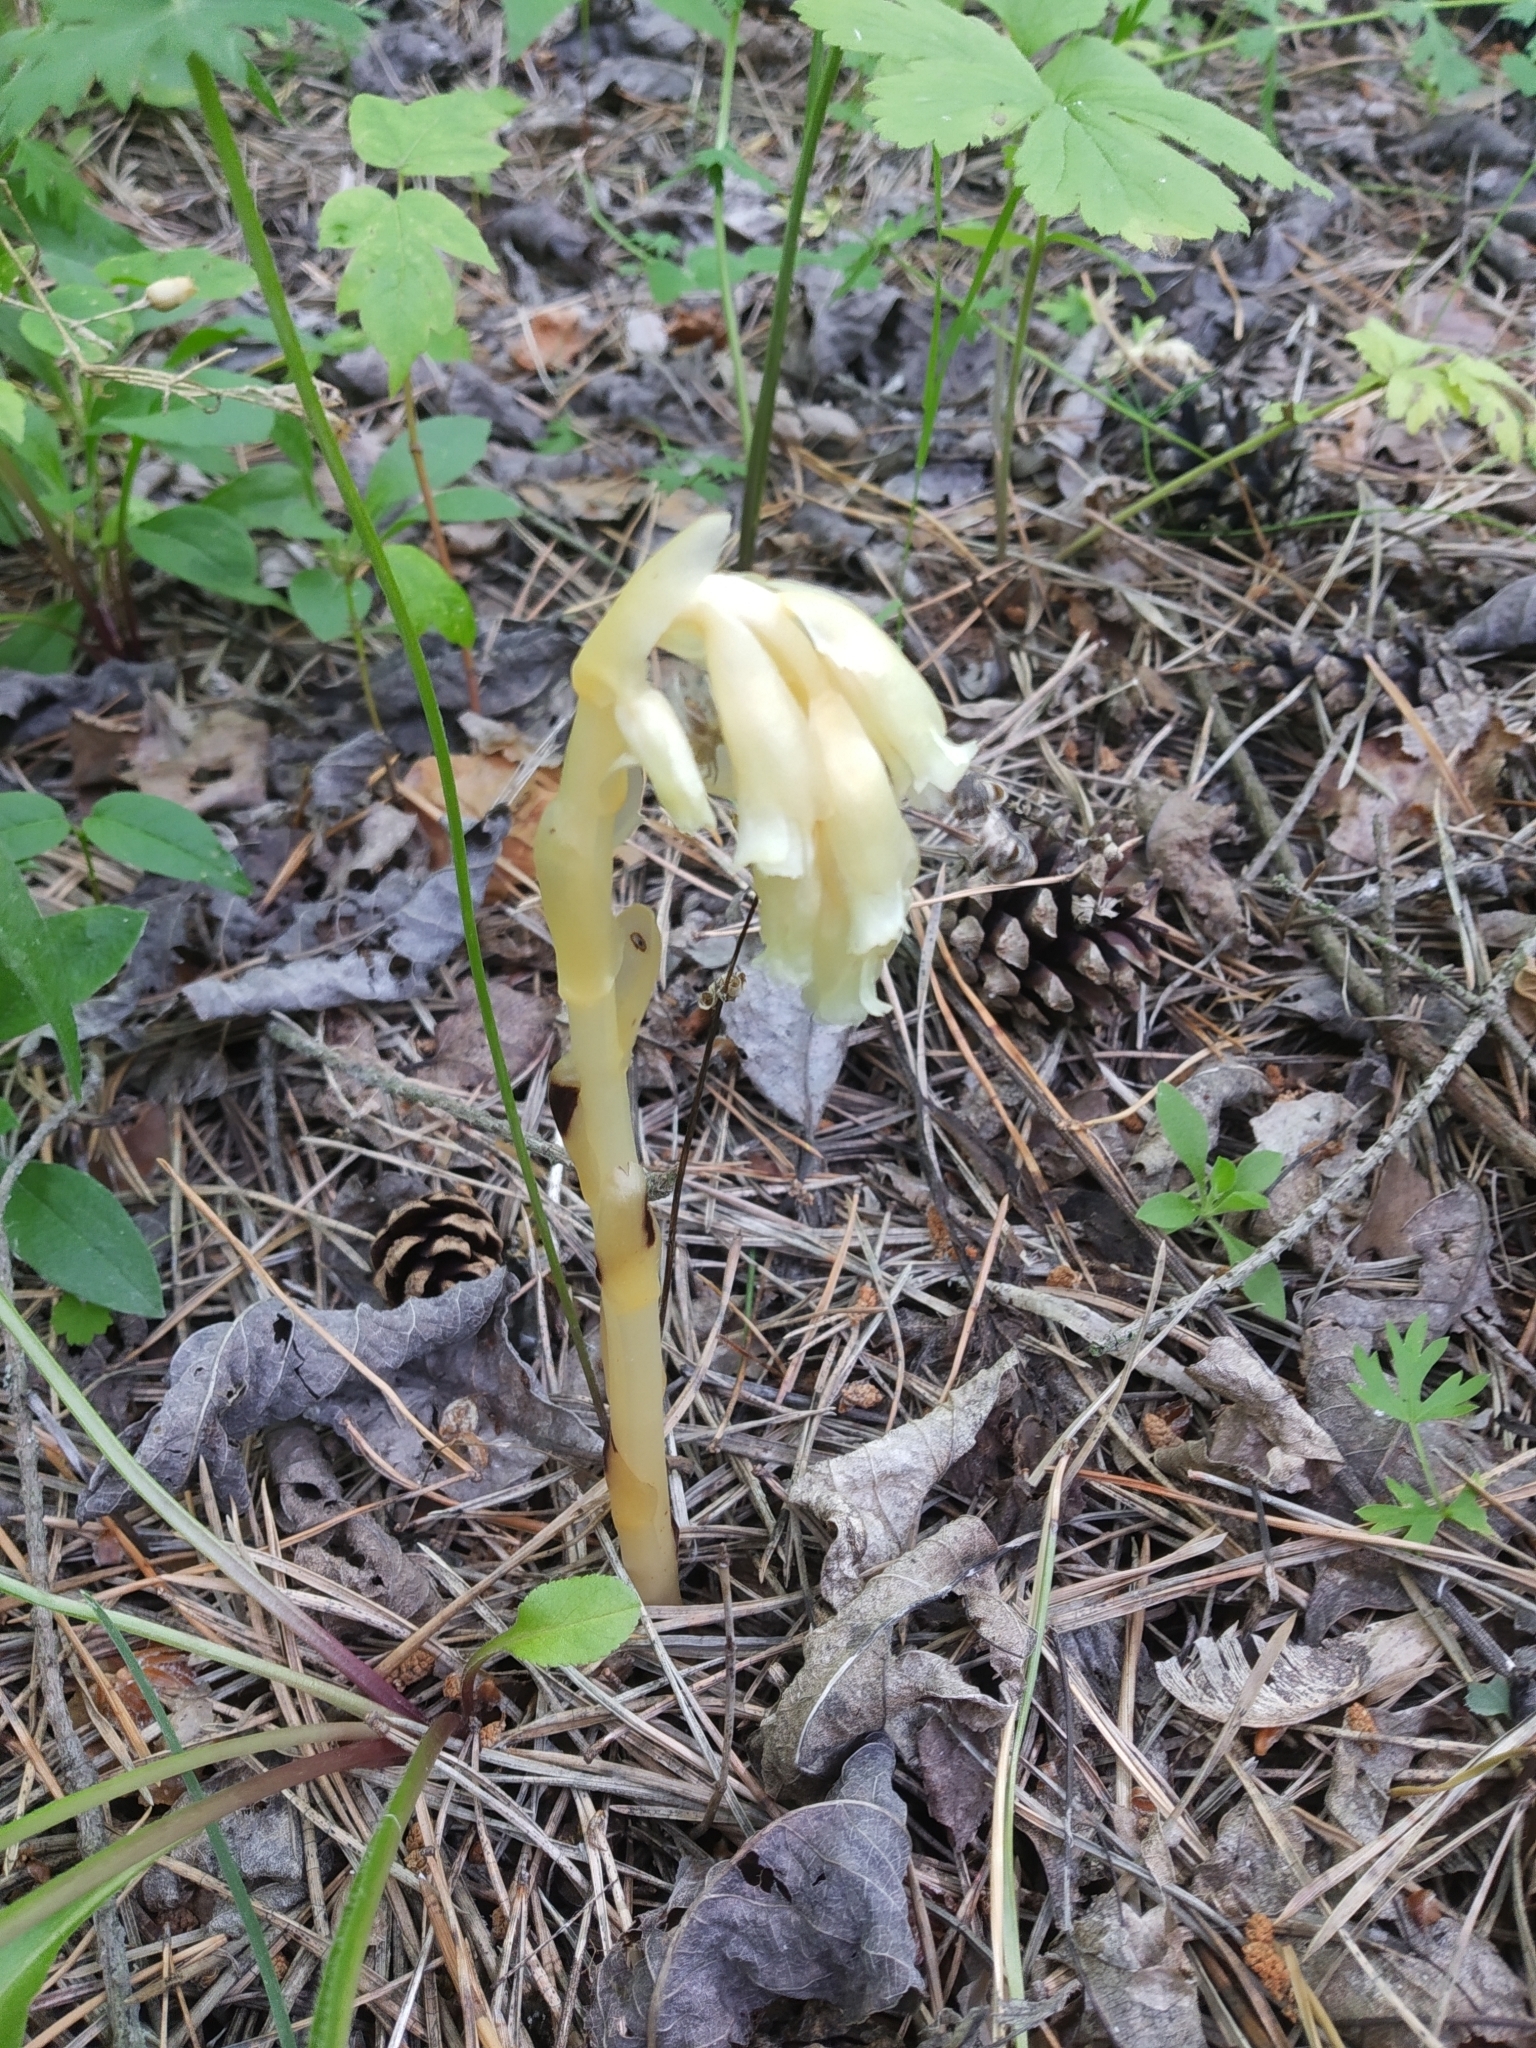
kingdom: Plantae
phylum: Tracheophyta
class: Magnoliopsida
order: Ericales
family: Ericaceae
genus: Hypopitys
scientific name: Hypopitys monotropa
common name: Yellow bird's-nest
